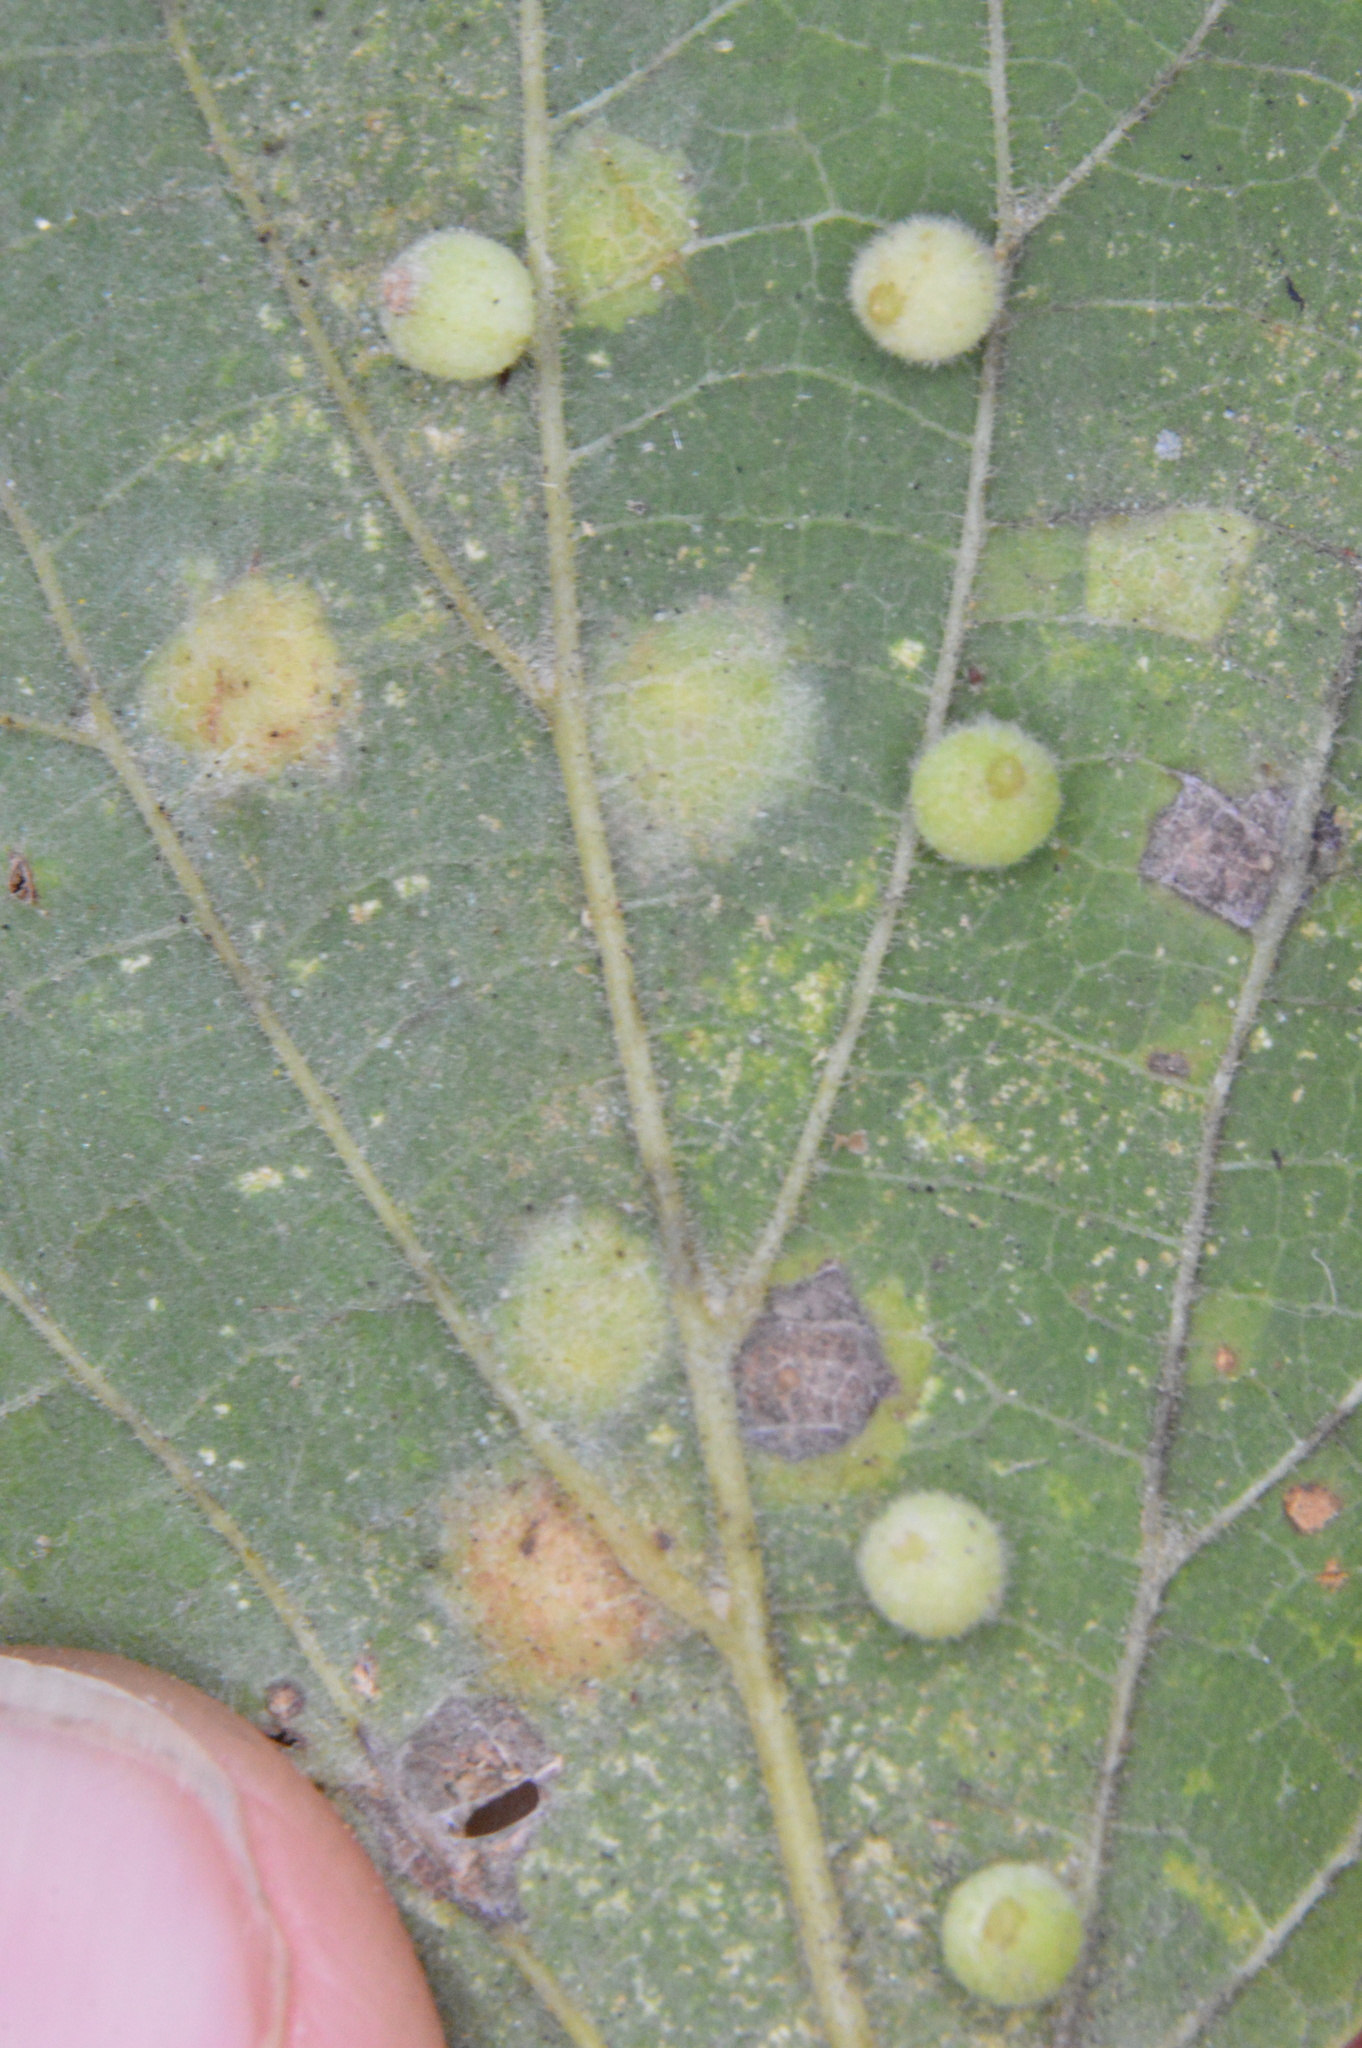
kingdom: Animalia
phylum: Arthropoda
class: Insecta
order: Diptera
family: Cecidomyiidae
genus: Celticecis
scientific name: Celticecis globosa
